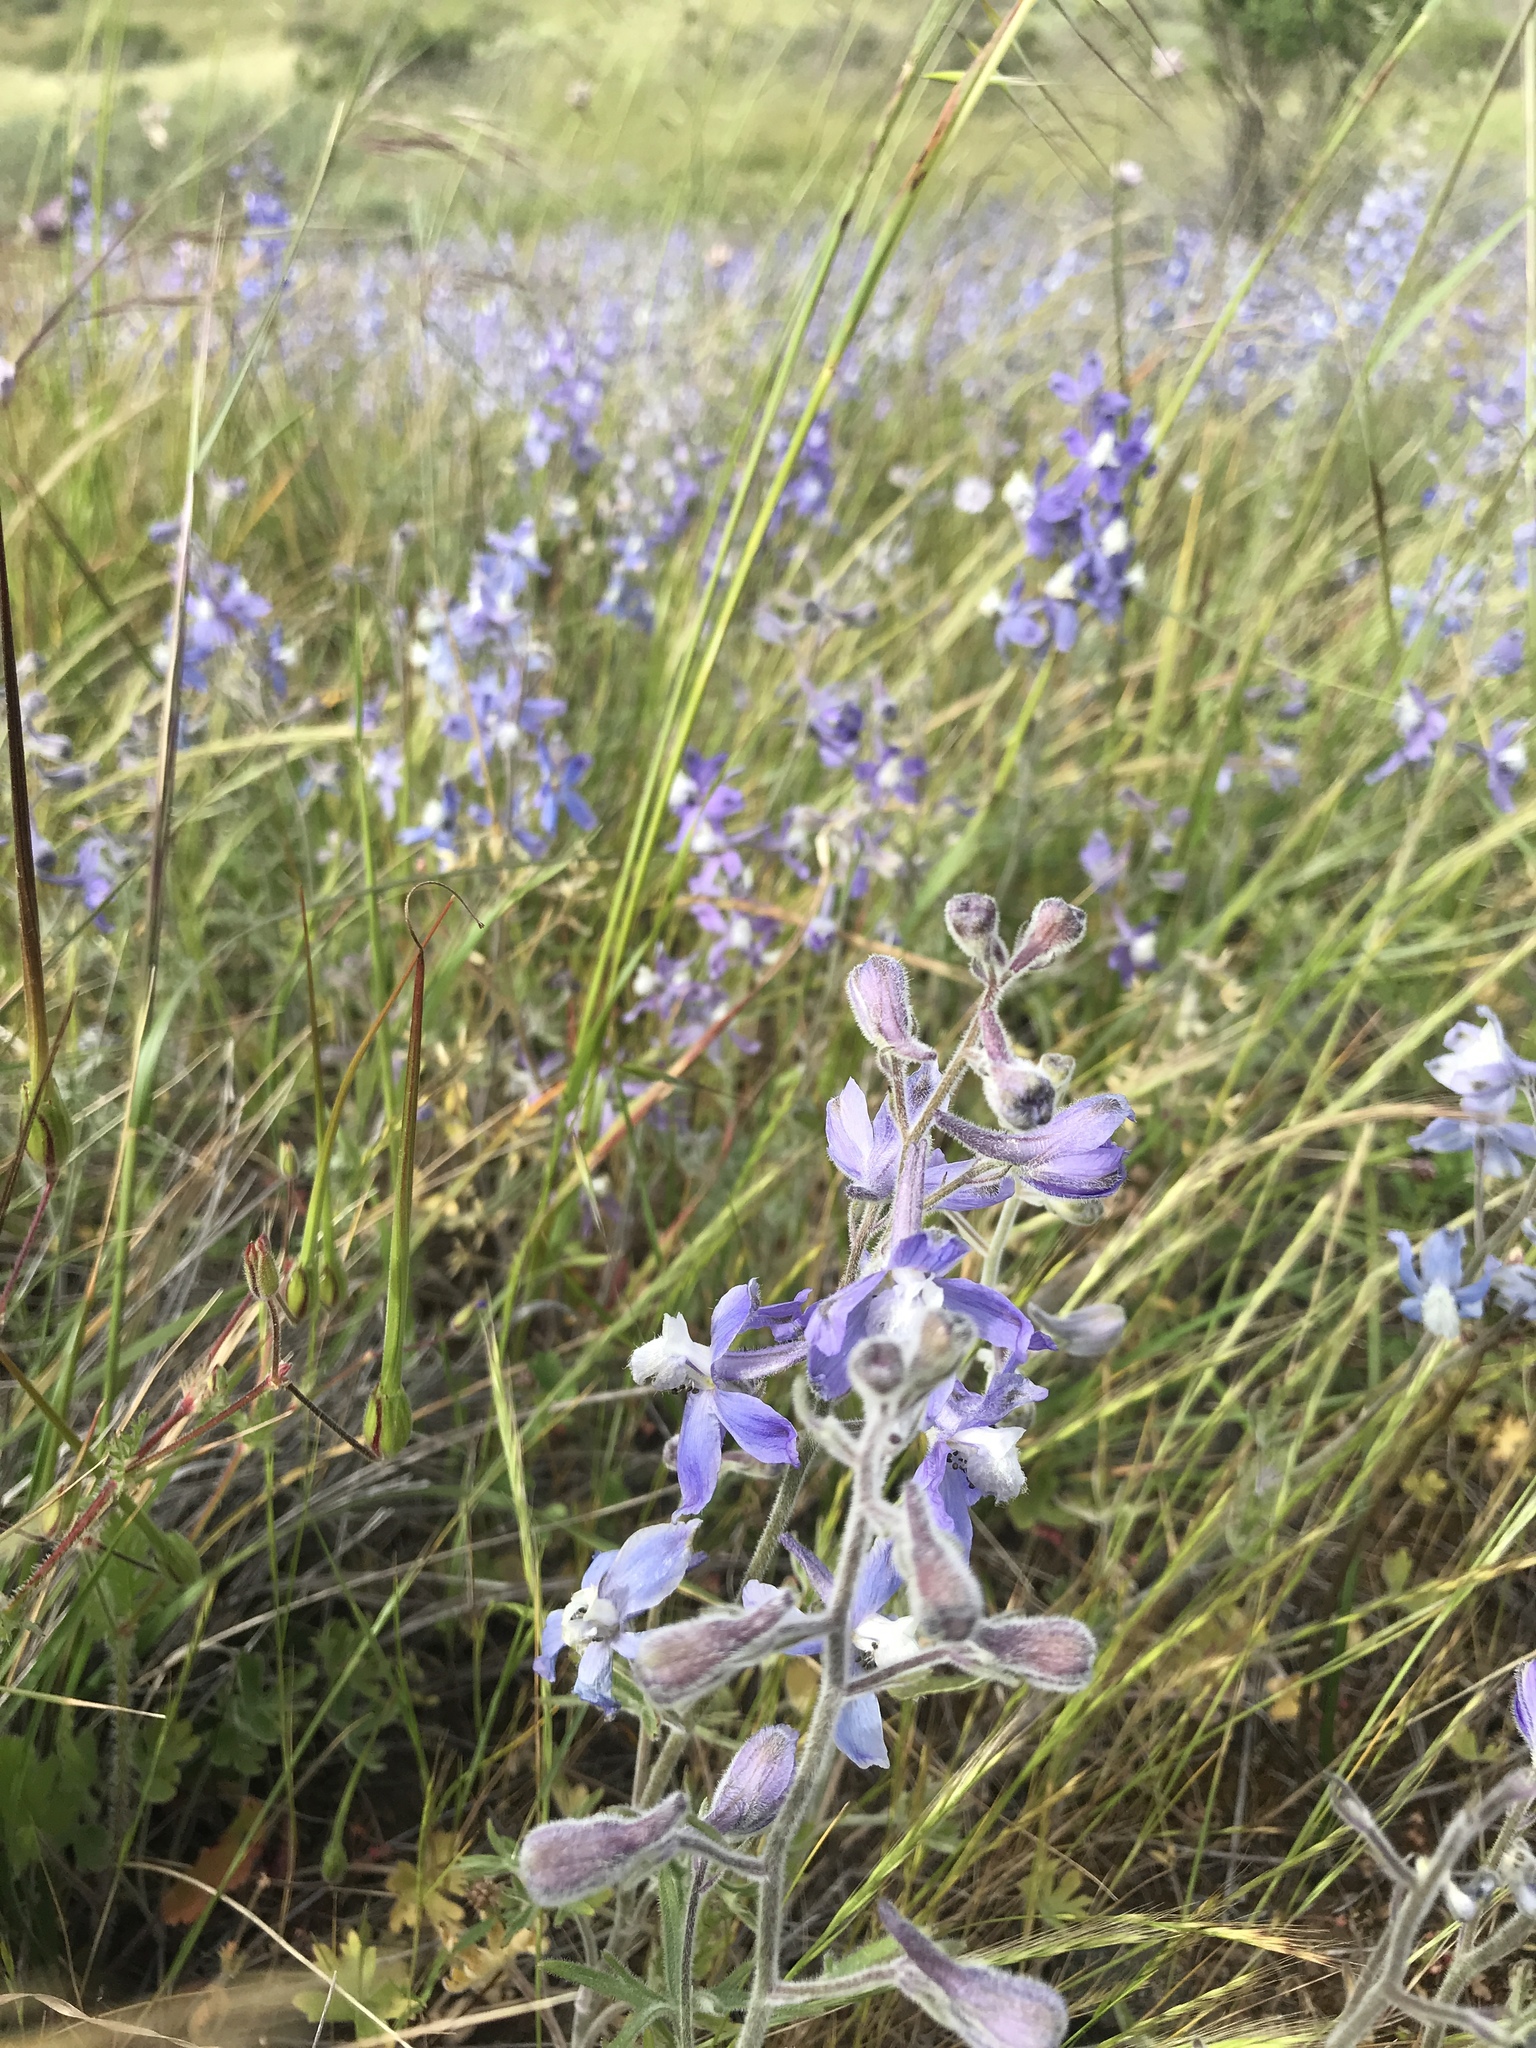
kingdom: Plantae
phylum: Tracheophyta
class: Magnoliopsida
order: Ranunculales
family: Ranunculaceae
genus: Delphinium
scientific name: Delphinium variegatum
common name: Royal larkspur
